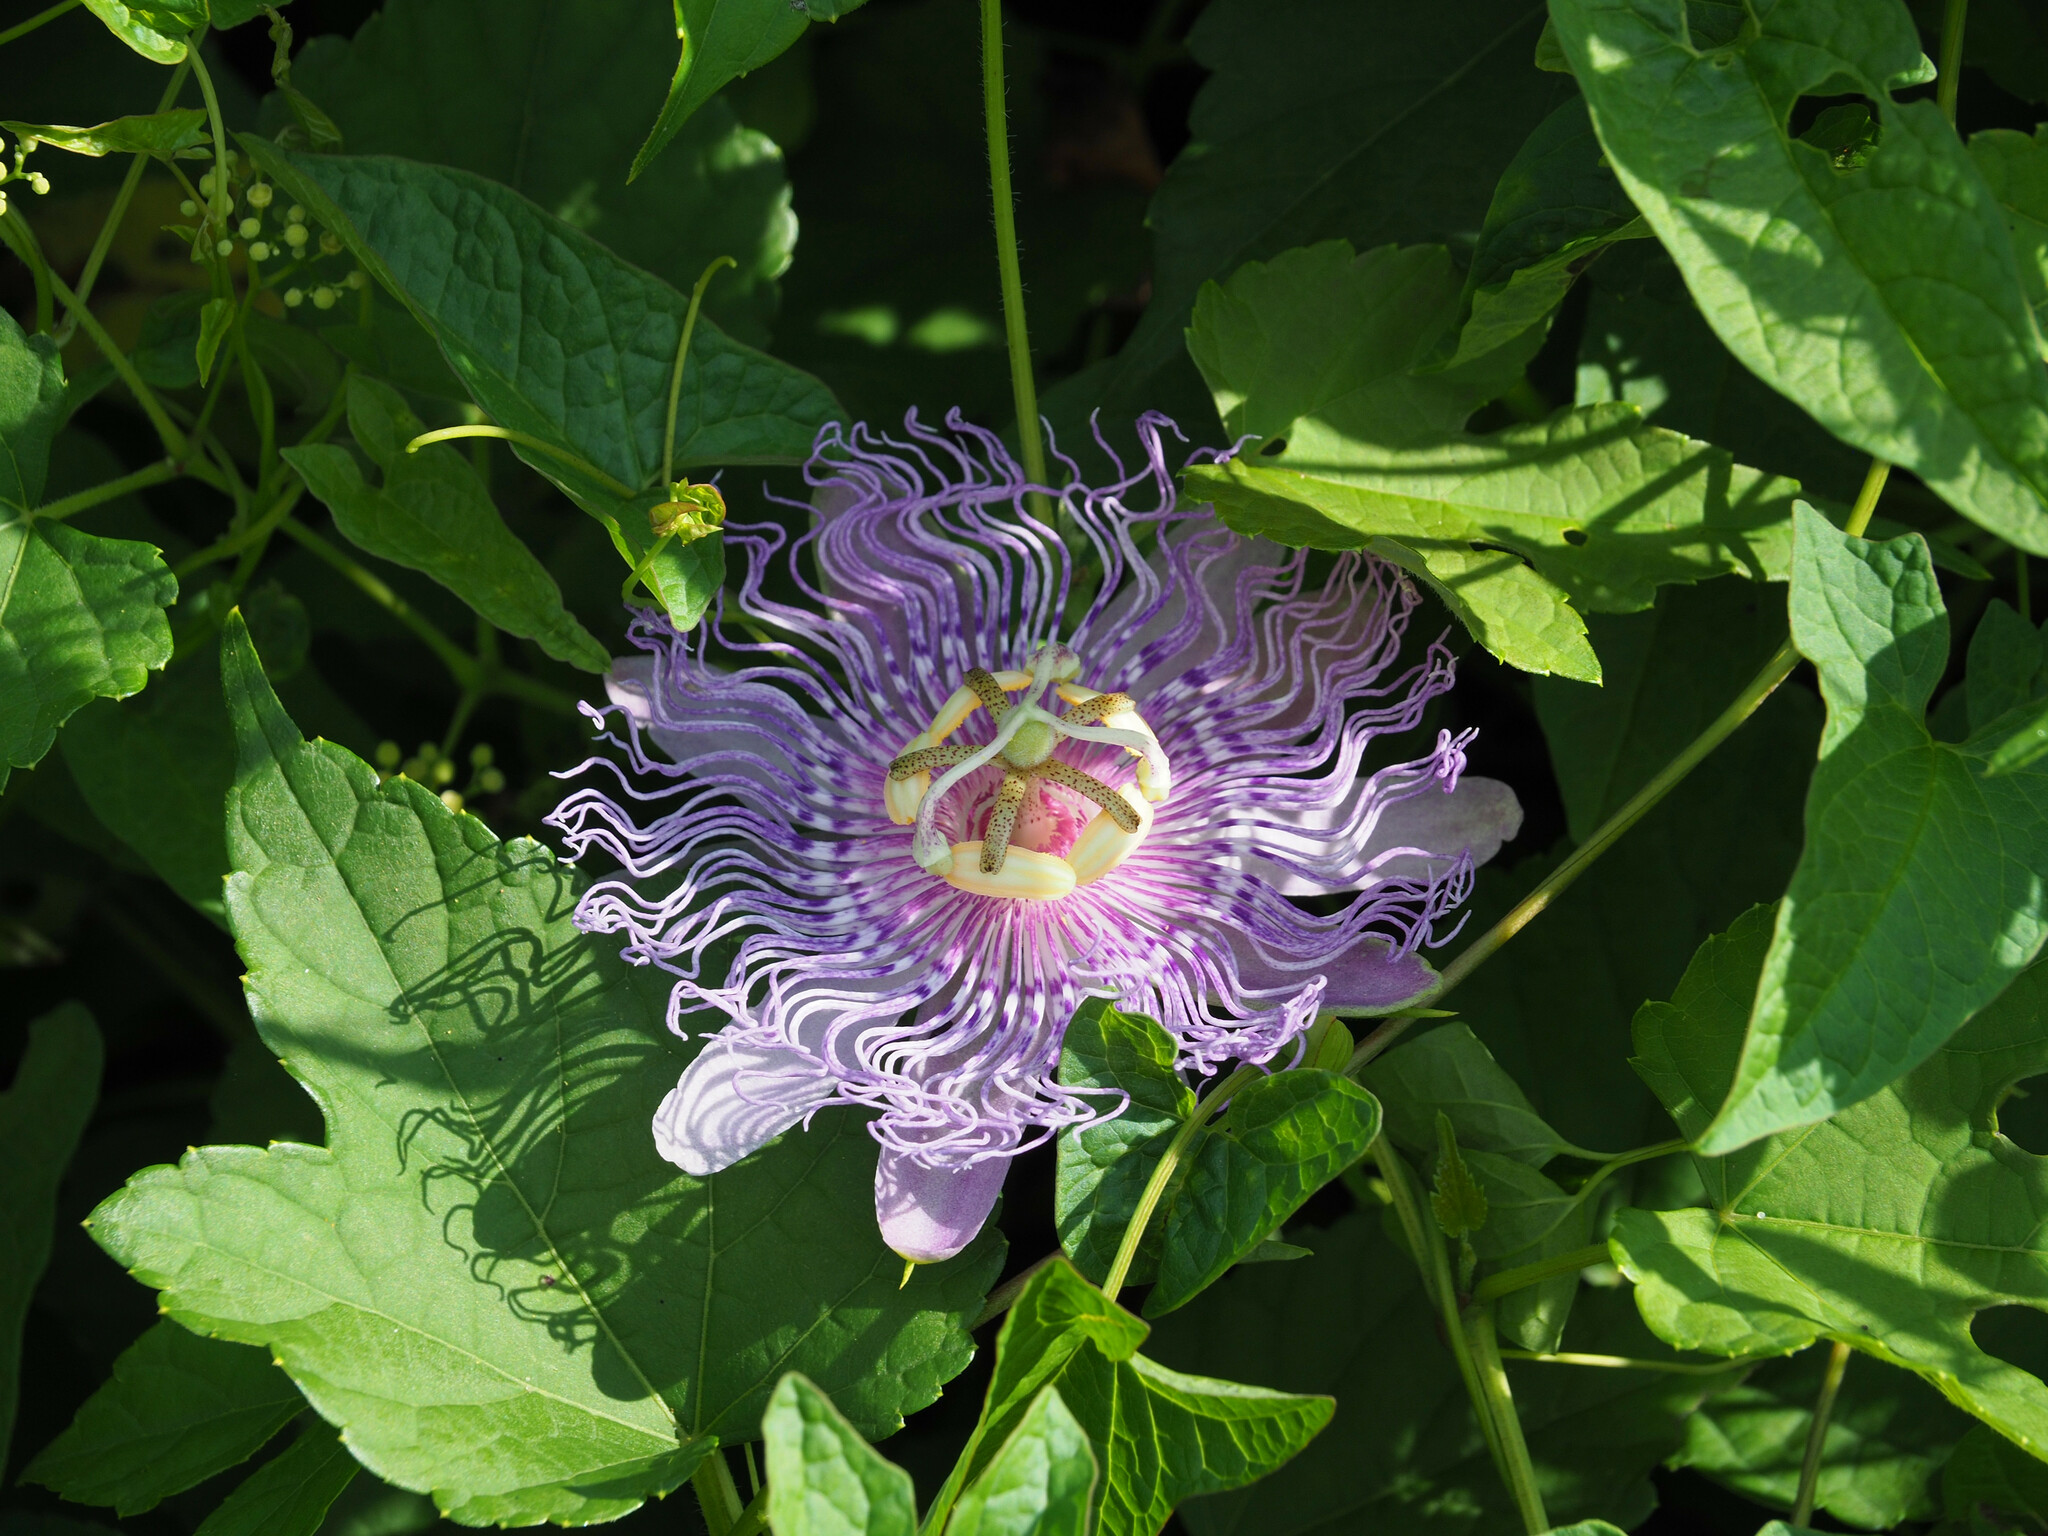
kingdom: Plantae
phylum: Tracheophyta
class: Magnoliopsida
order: Malpighiales
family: Passifloraceae
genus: Passiflora
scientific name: Passiflora incarnata
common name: Apricot-vine
